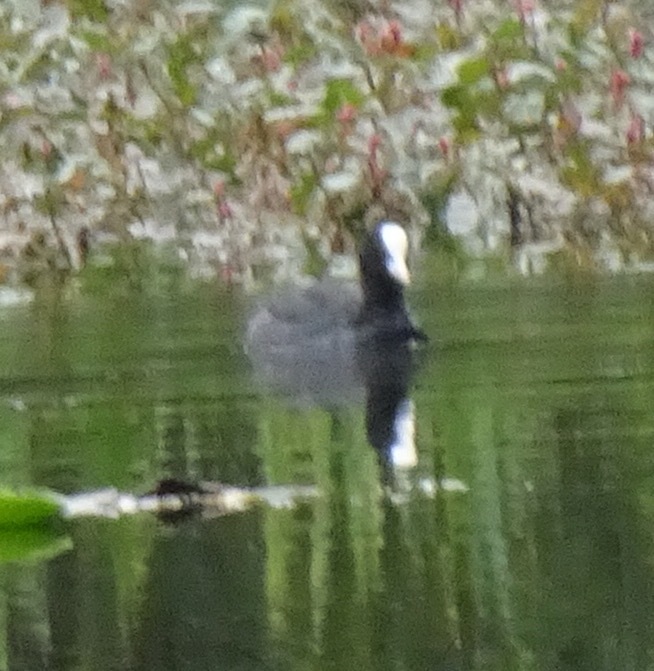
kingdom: Animalia
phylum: Chordata
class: Aves
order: Gruiformes
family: Rallidae
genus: Fulica
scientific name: Fulica atra
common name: Eurasian coot
